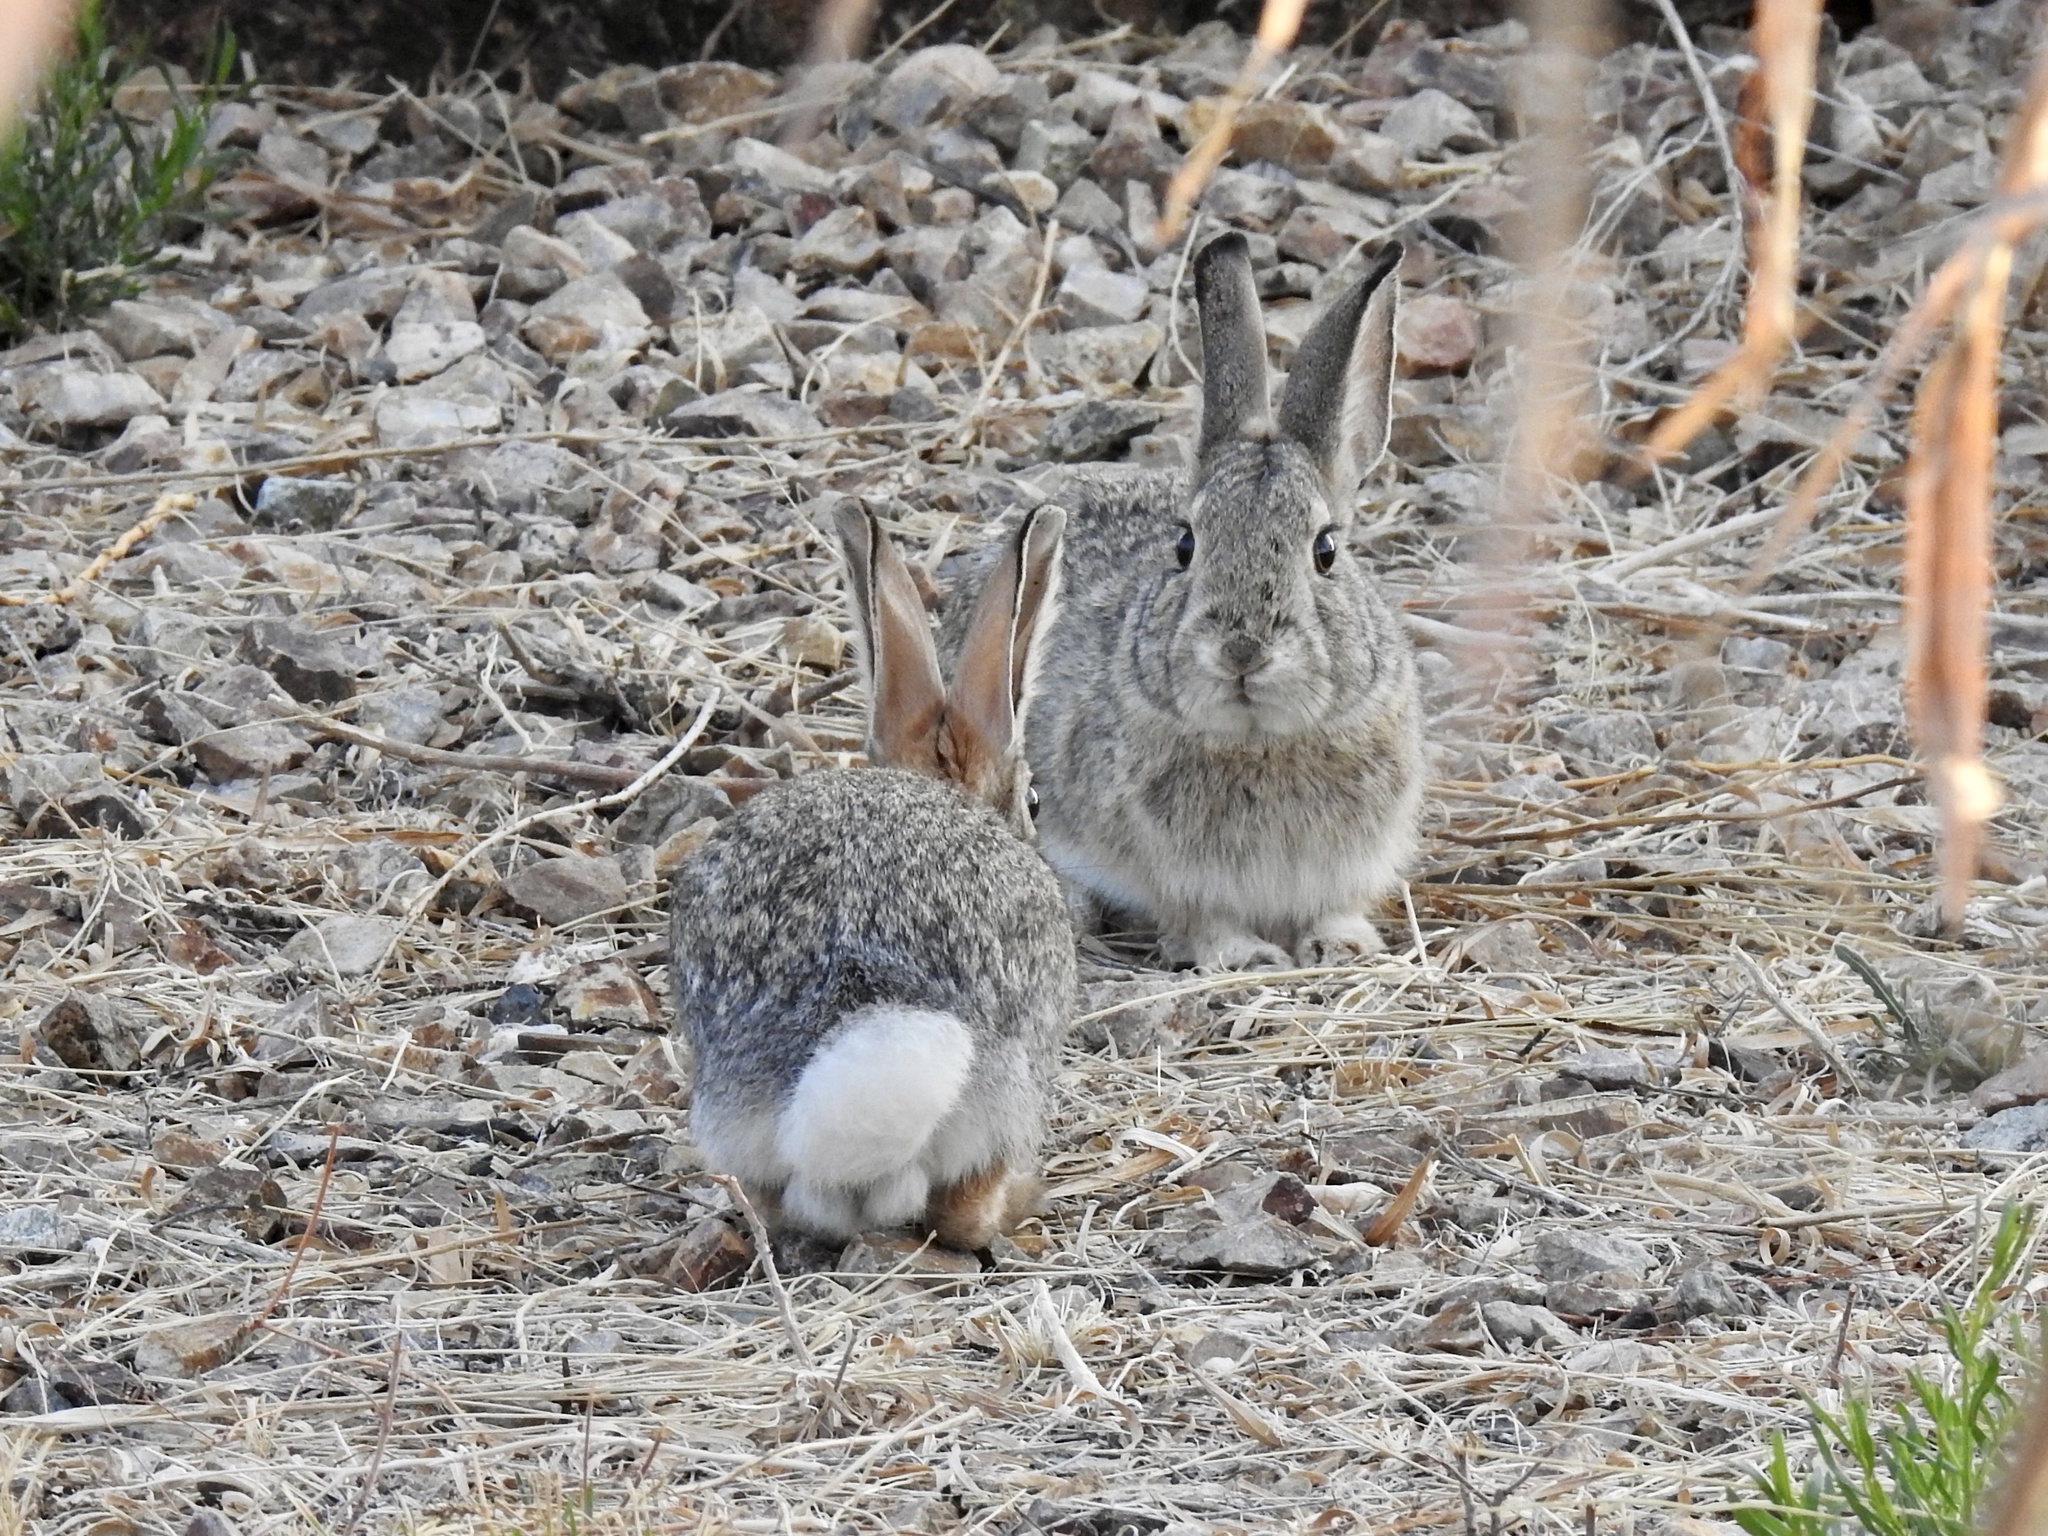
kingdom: Animalia
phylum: Chordata
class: Mammalia
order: Lagomorpha
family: Leporidae
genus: Sylvilagus
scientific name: Sylvilagus audubonii
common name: Desert cottontail
